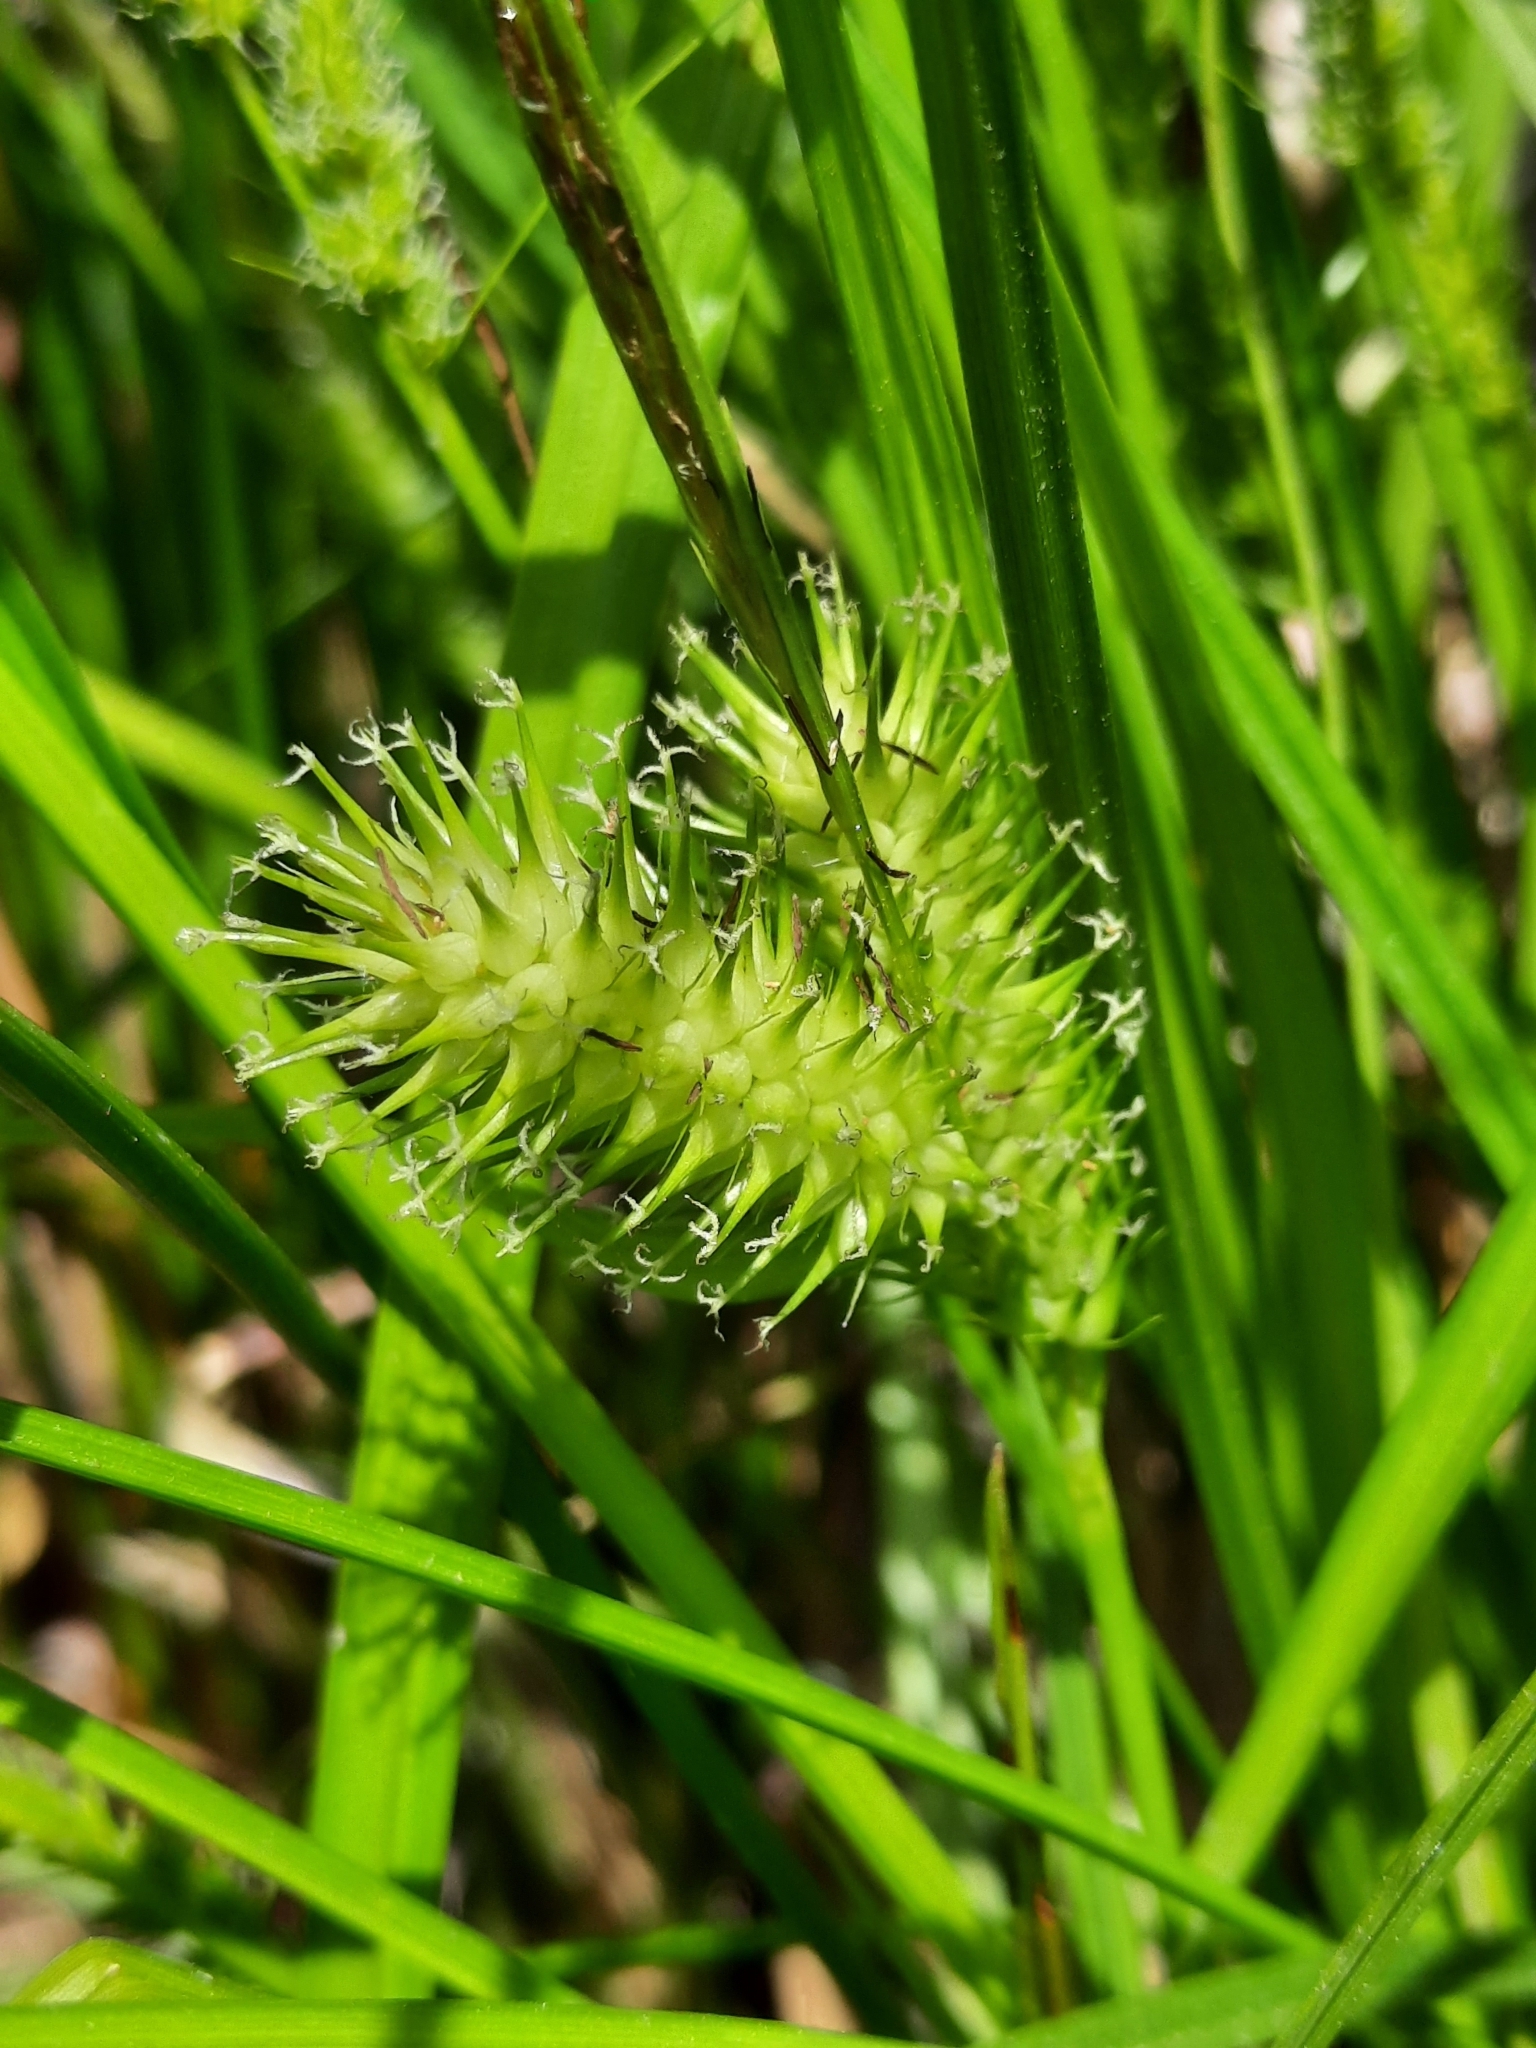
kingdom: Plantae
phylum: Tracheophyta
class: Liliopsida
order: Poales
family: Cyperaceae
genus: Carex
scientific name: Carex lurida
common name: Sallow sedge
